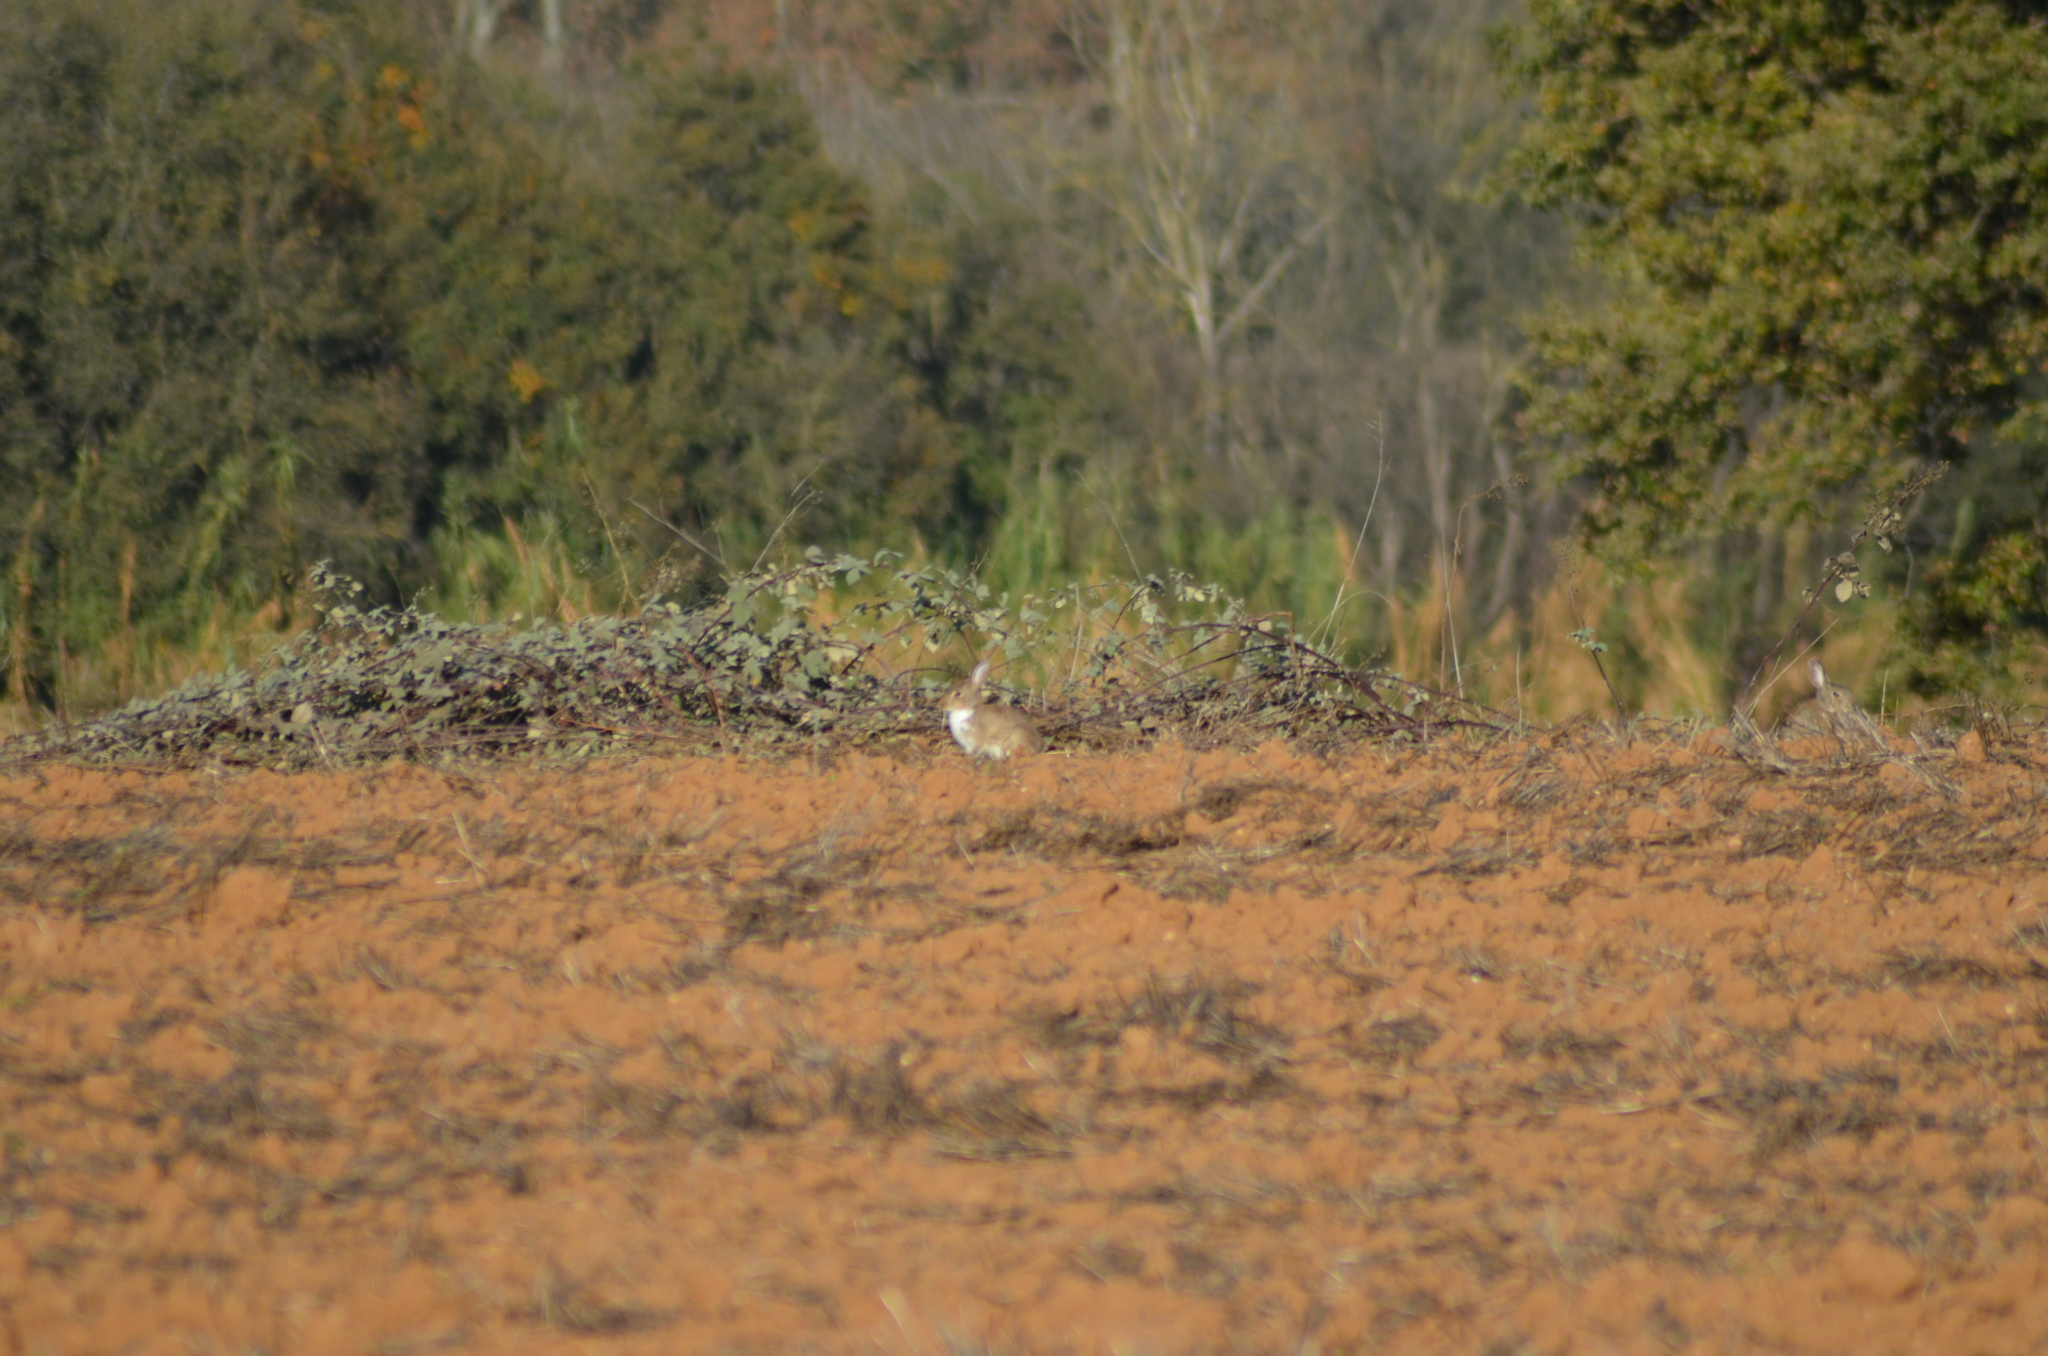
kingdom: Animalia
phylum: Chordata
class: Mammalia
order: Lagomorpha
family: Leporidae
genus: Oryctolagus
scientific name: Oryctolagus cuniculus
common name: European rabbit
